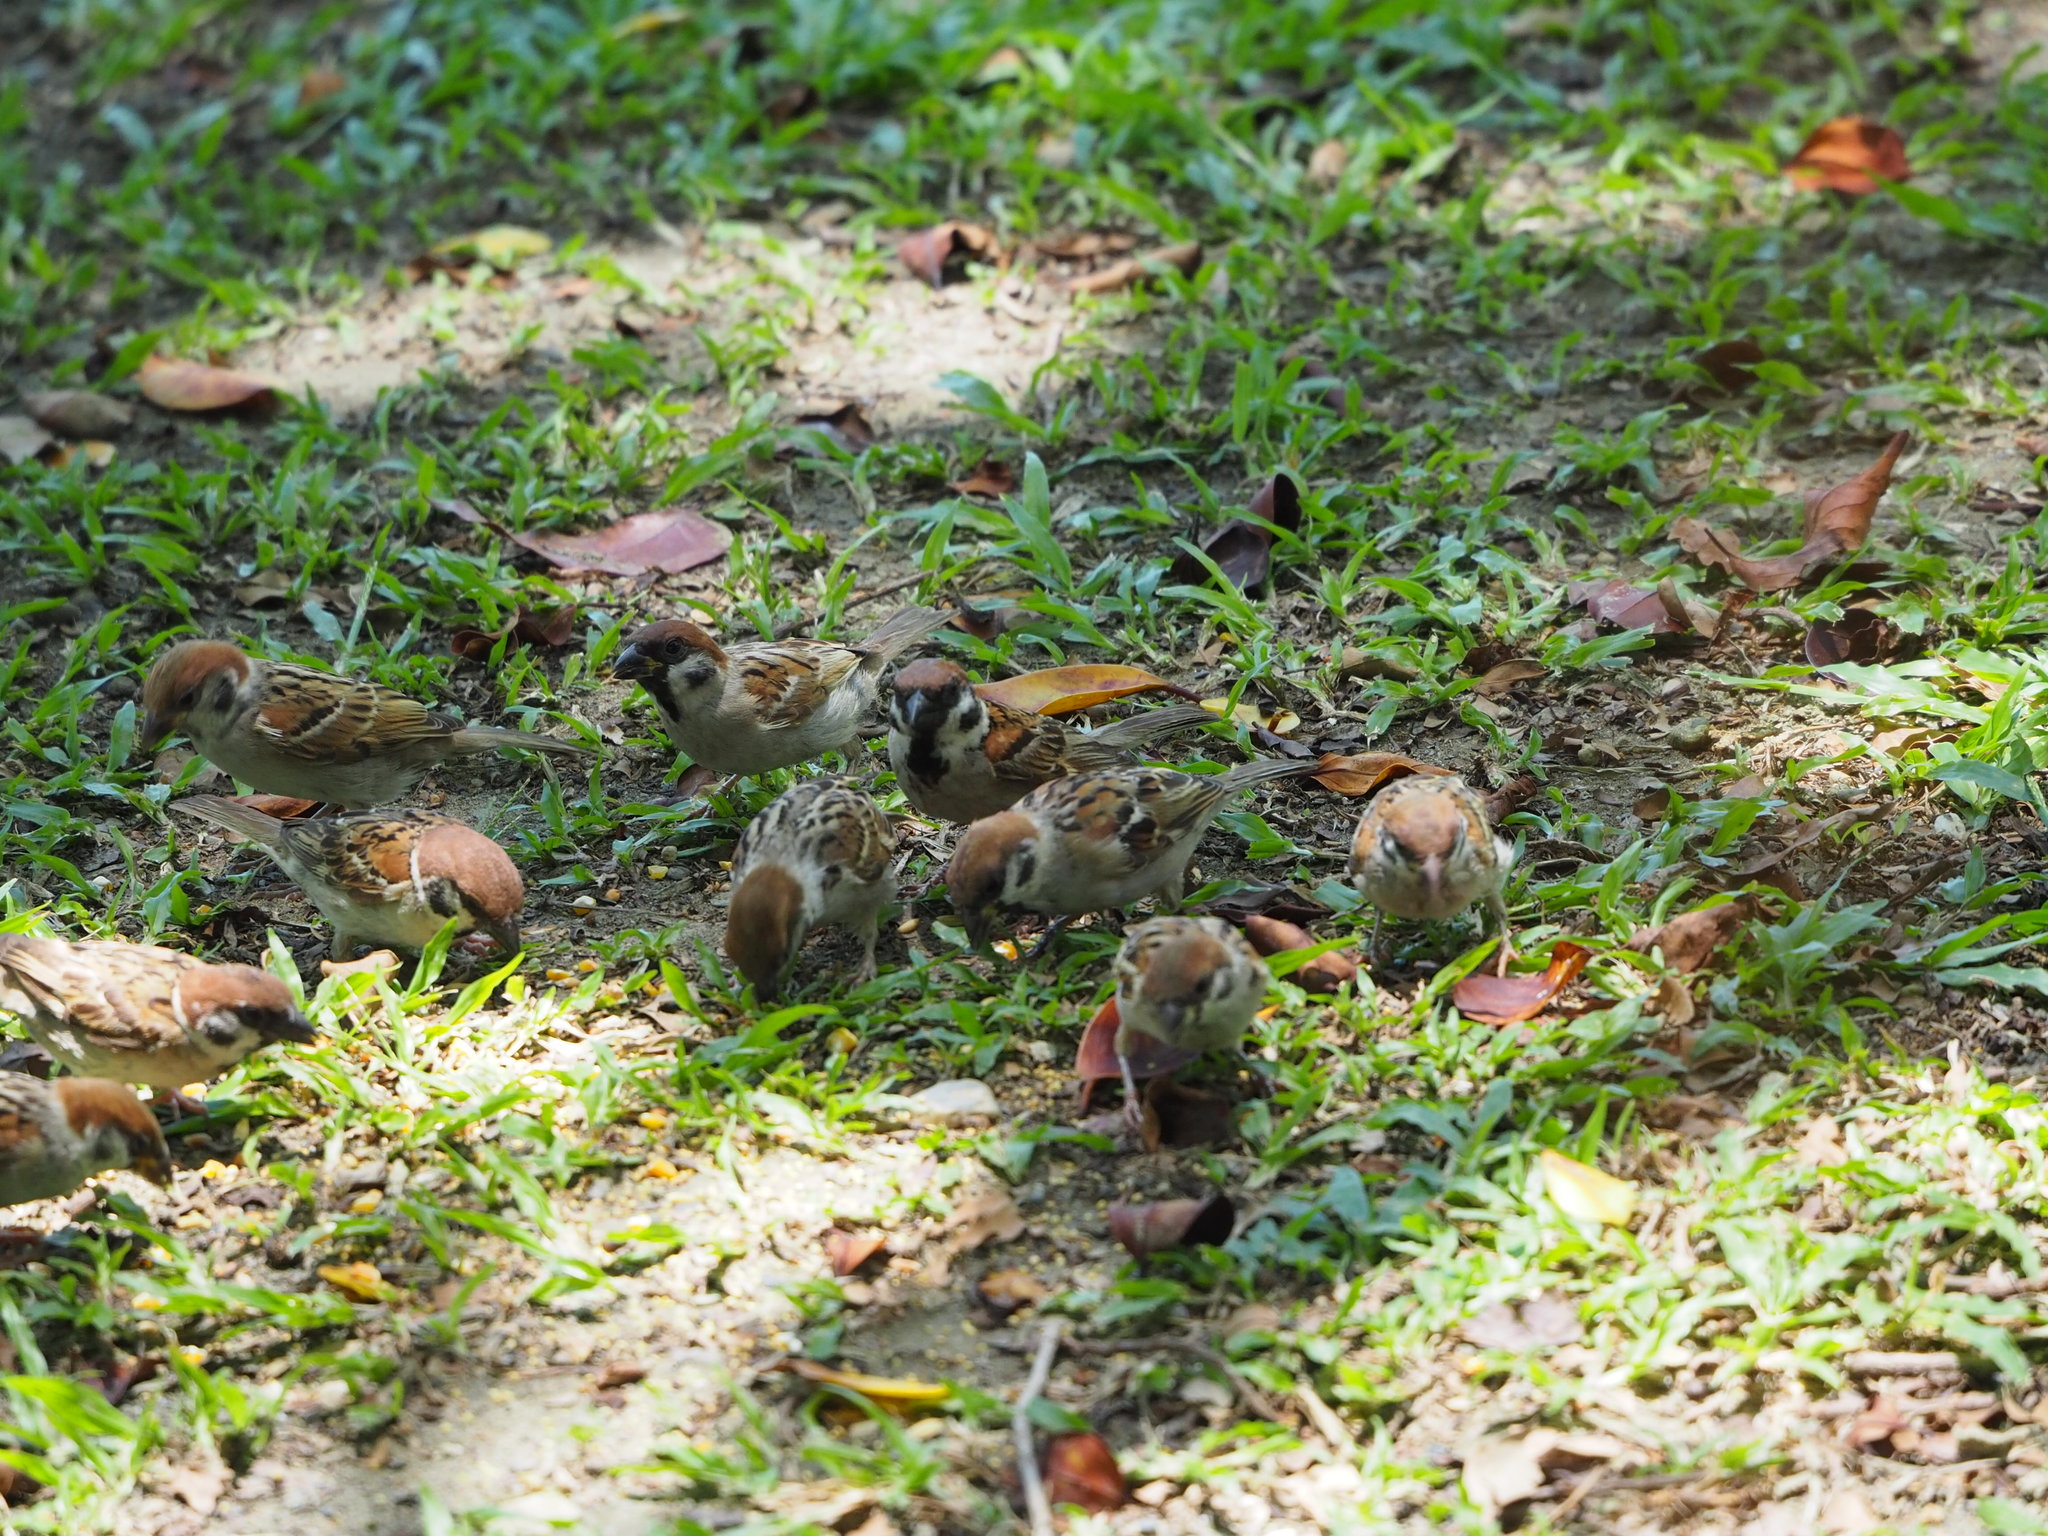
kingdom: Animalia
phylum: Chordata
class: Aves
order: Passeriformes
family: Passeridae
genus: Passer
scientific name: Passer montanus
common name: Eurasian tree sparrow
